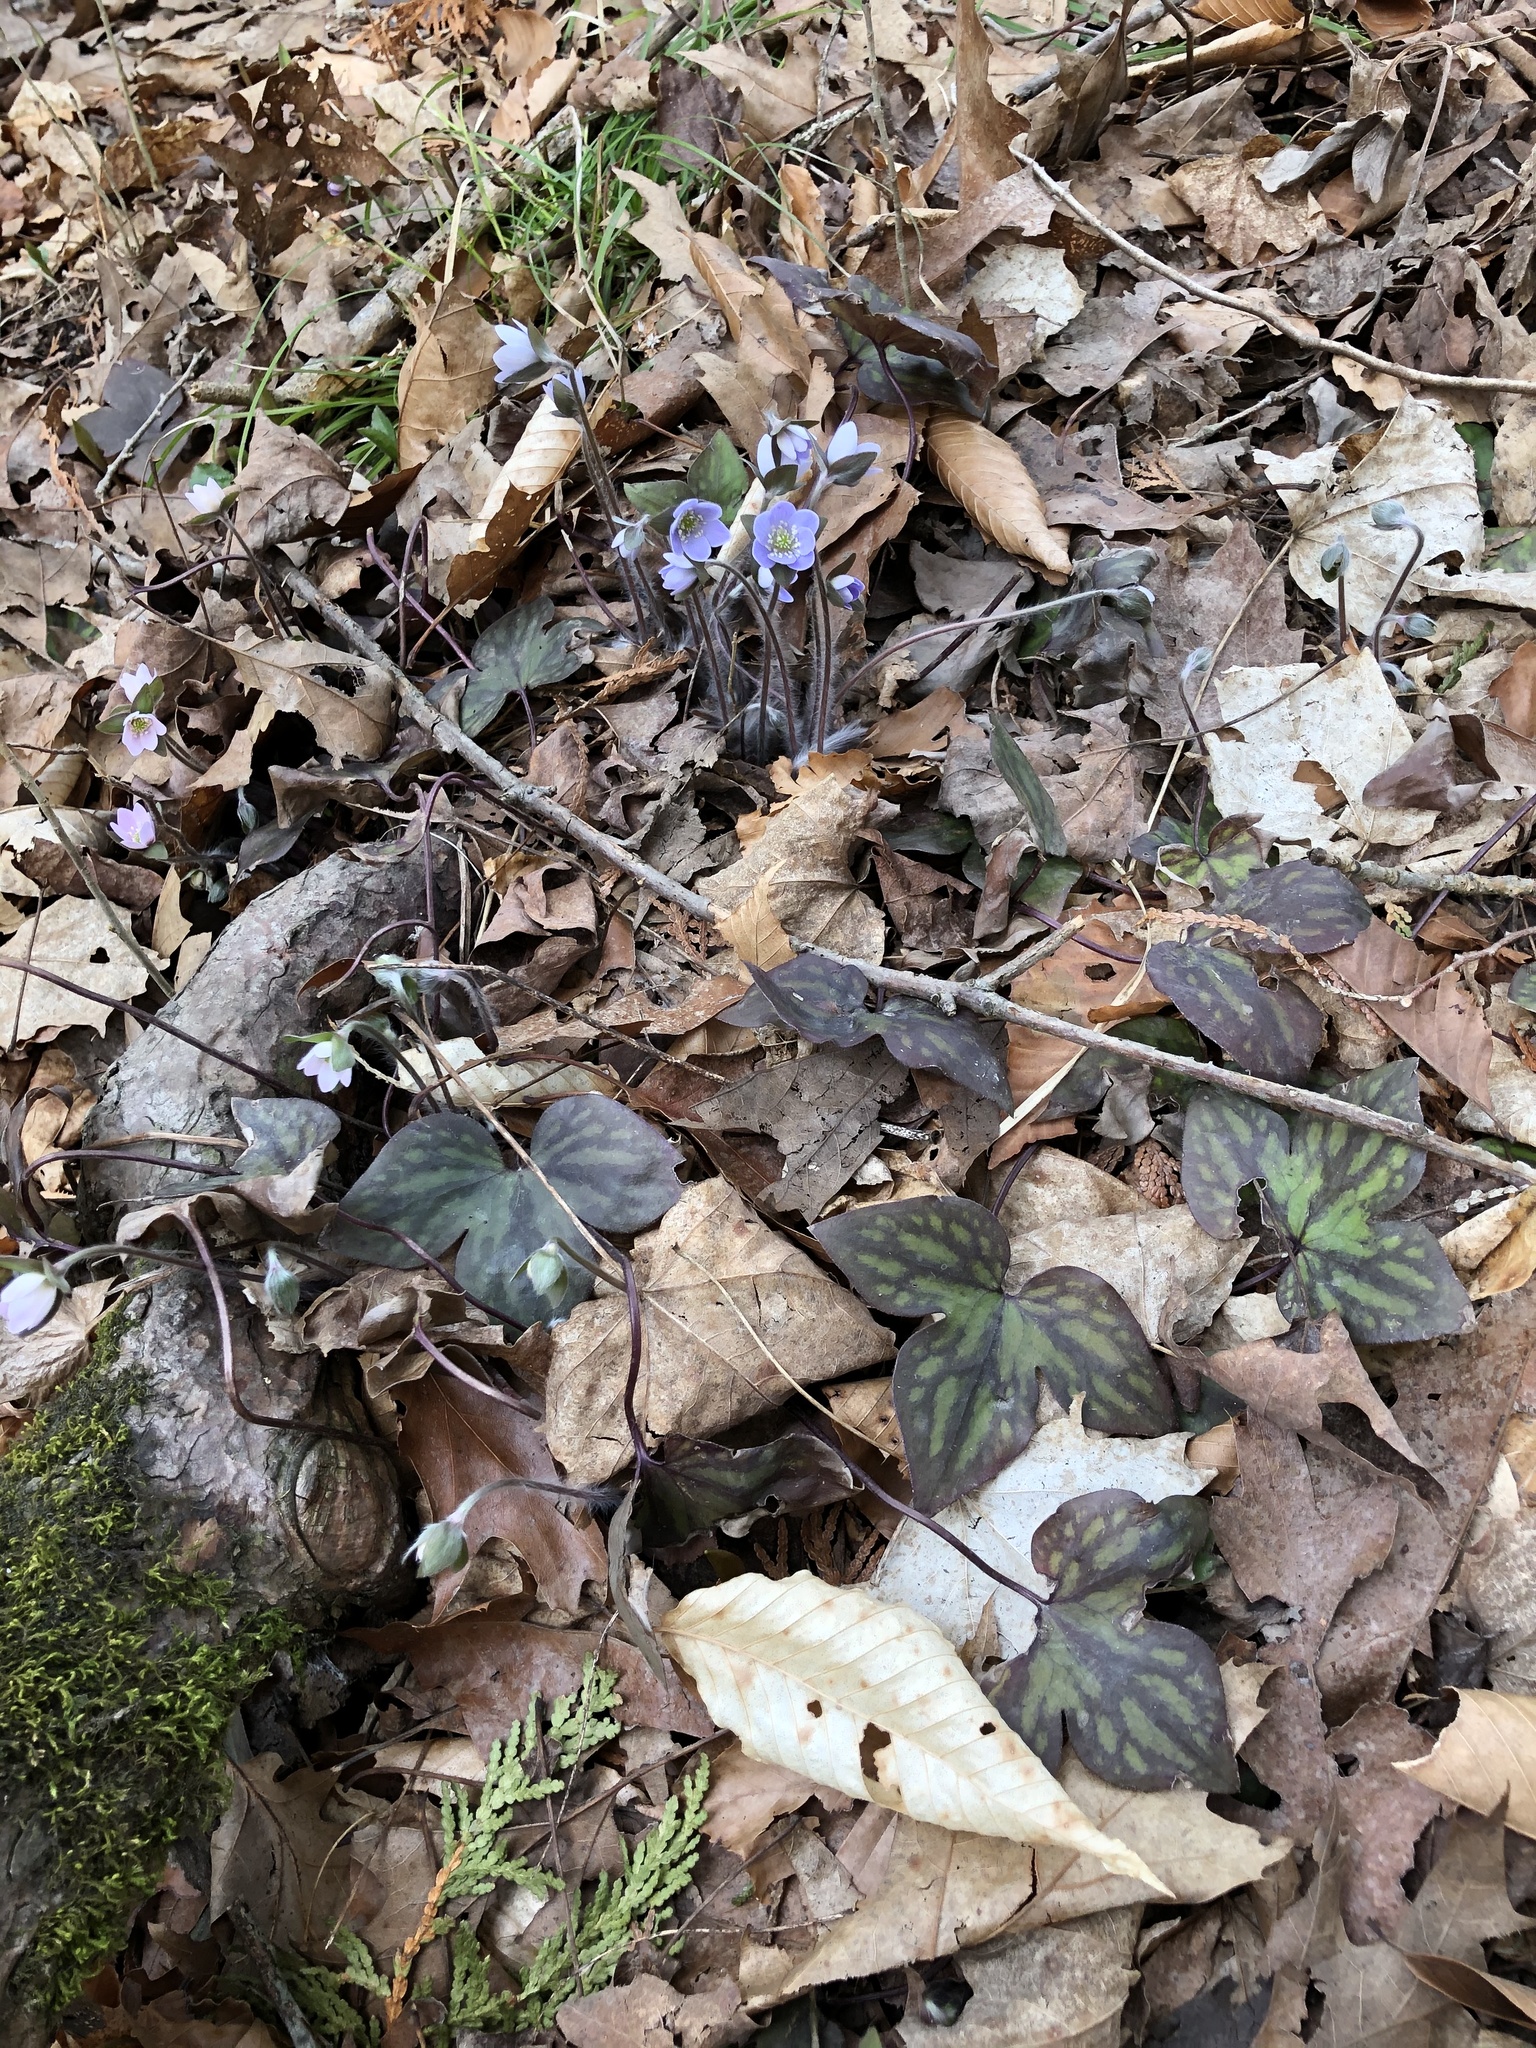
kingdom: Plantae
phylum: Tracheophyta
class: Magnoliopsida
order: Ranunculales
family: Ranunculaceae
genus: Hepatica
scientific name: Hepatica acutiloba
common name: Sharp-lobed hepatica
